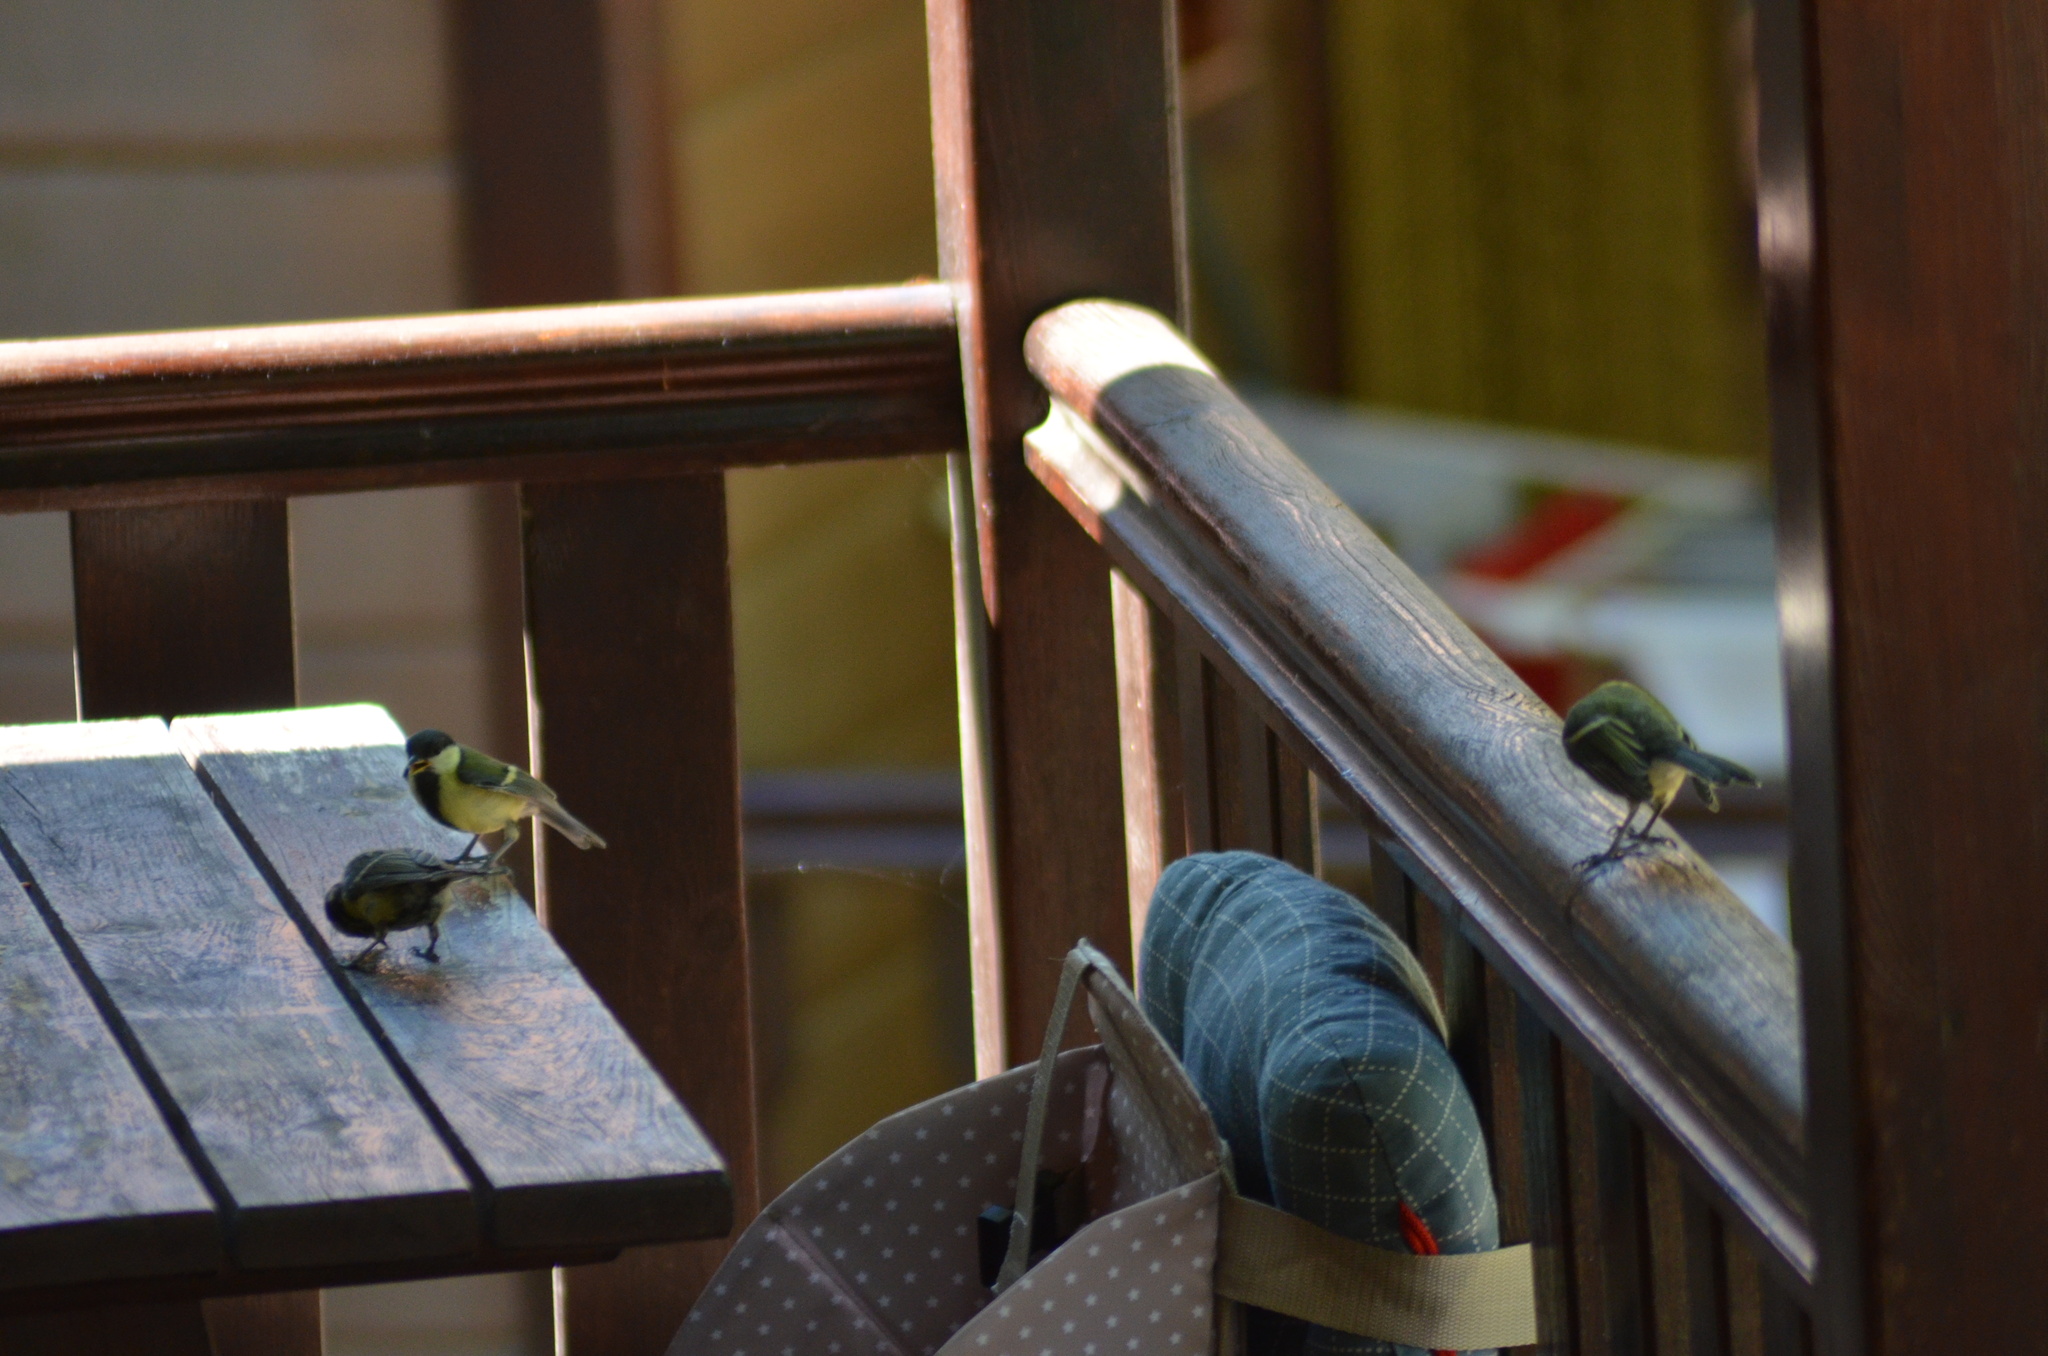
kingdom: Animalia
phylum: Chordata
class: Aves
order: Passeriformes
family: Paridae
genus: Parus
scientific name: Parus major
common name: Great tit
